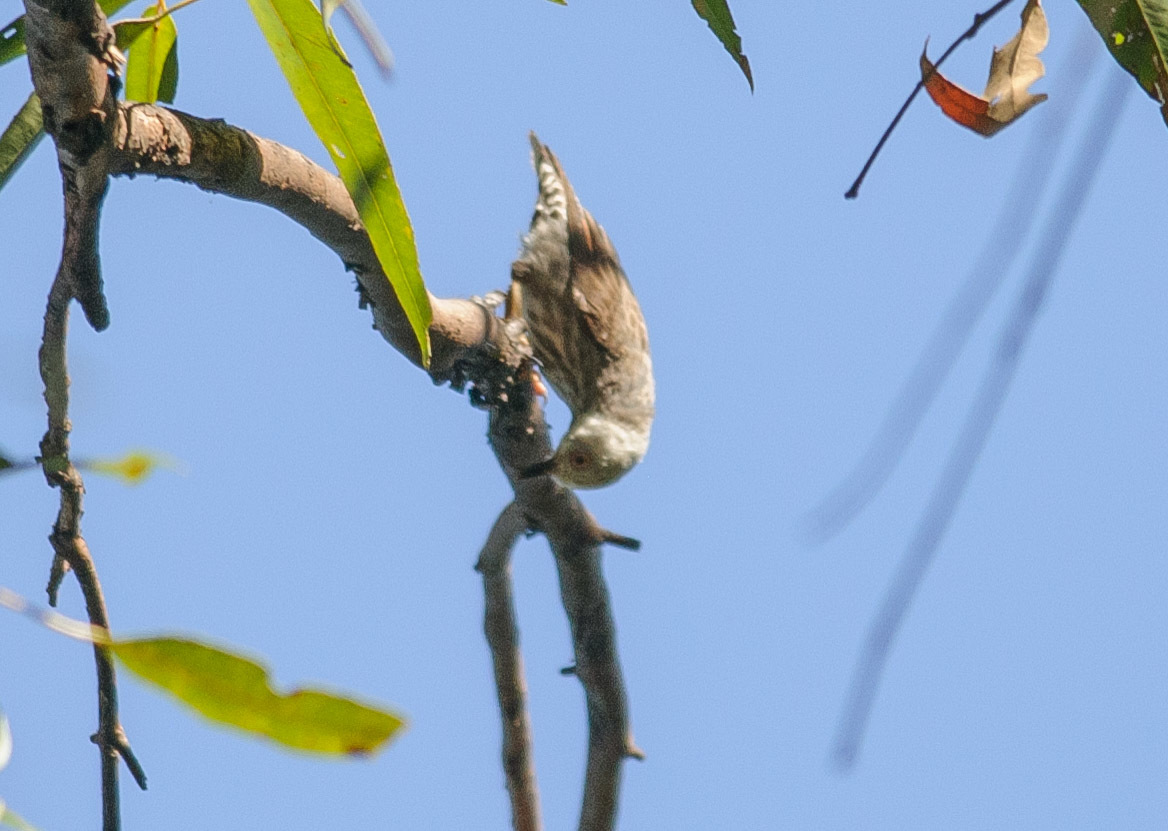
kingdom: Animalia
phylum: Chordata
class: Aves
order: Passeriformes
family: Neosittidae
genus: Daphoenositta
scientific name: Daphoenositta chrysoptera
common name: Varied sittella
